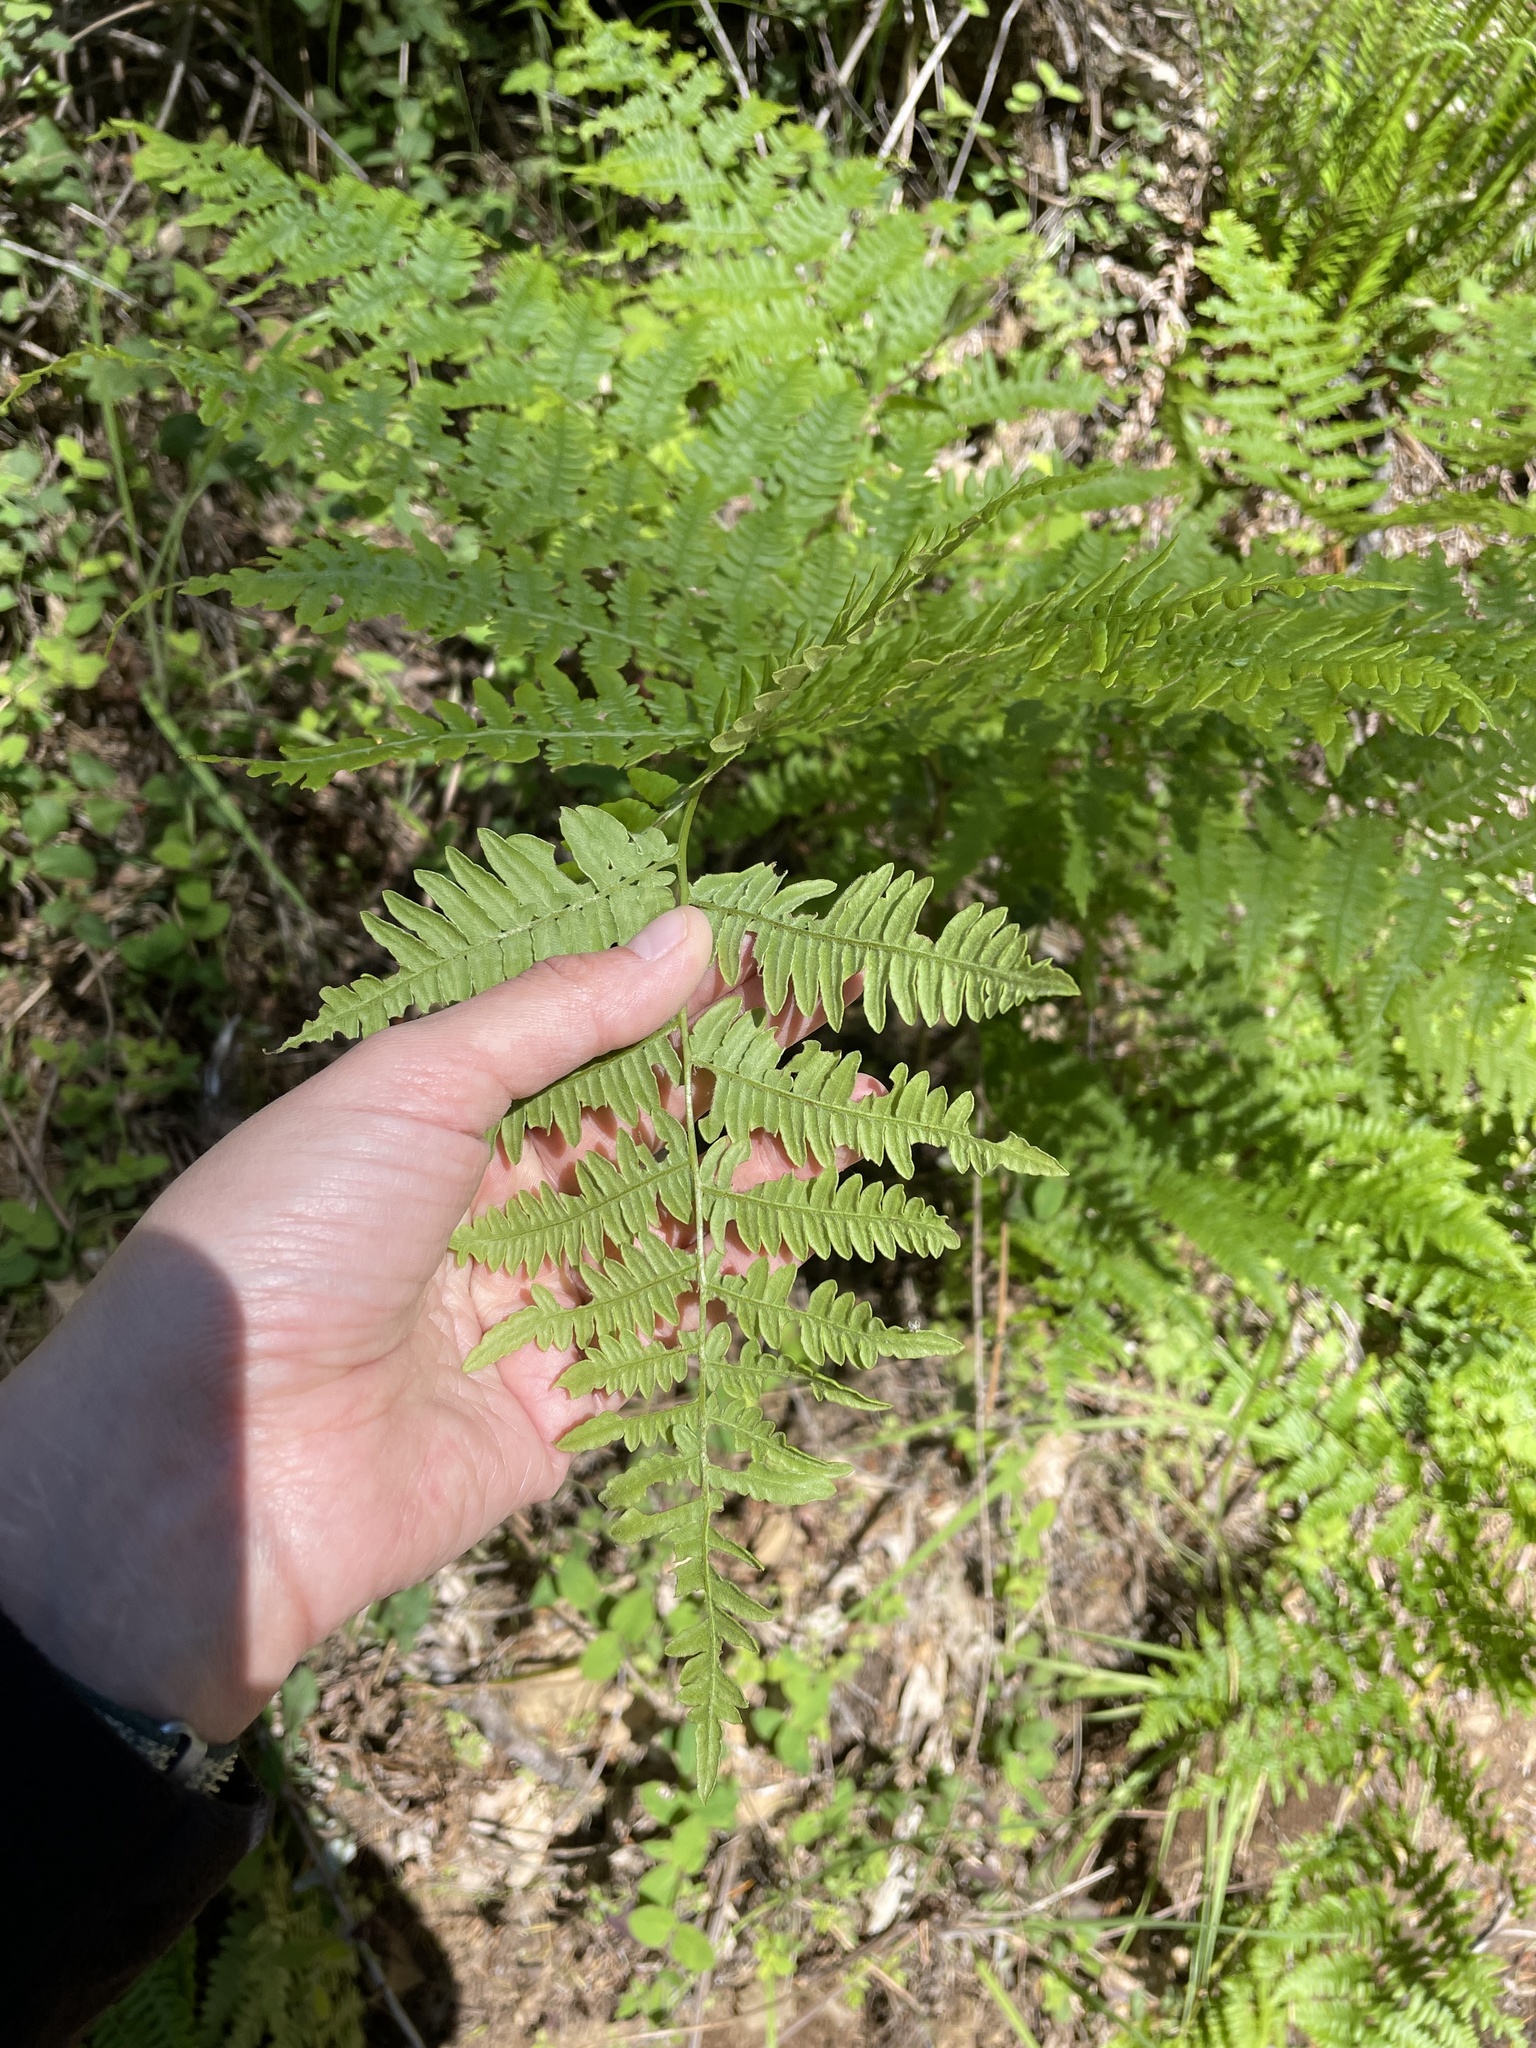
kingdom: Plantae
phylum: Tracheophyta
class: Polypodiopsida
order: Polypodiales
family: Dennstaedtiaceae
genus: Pteridium
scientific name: Pteridium aquilinum
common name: Bracken
